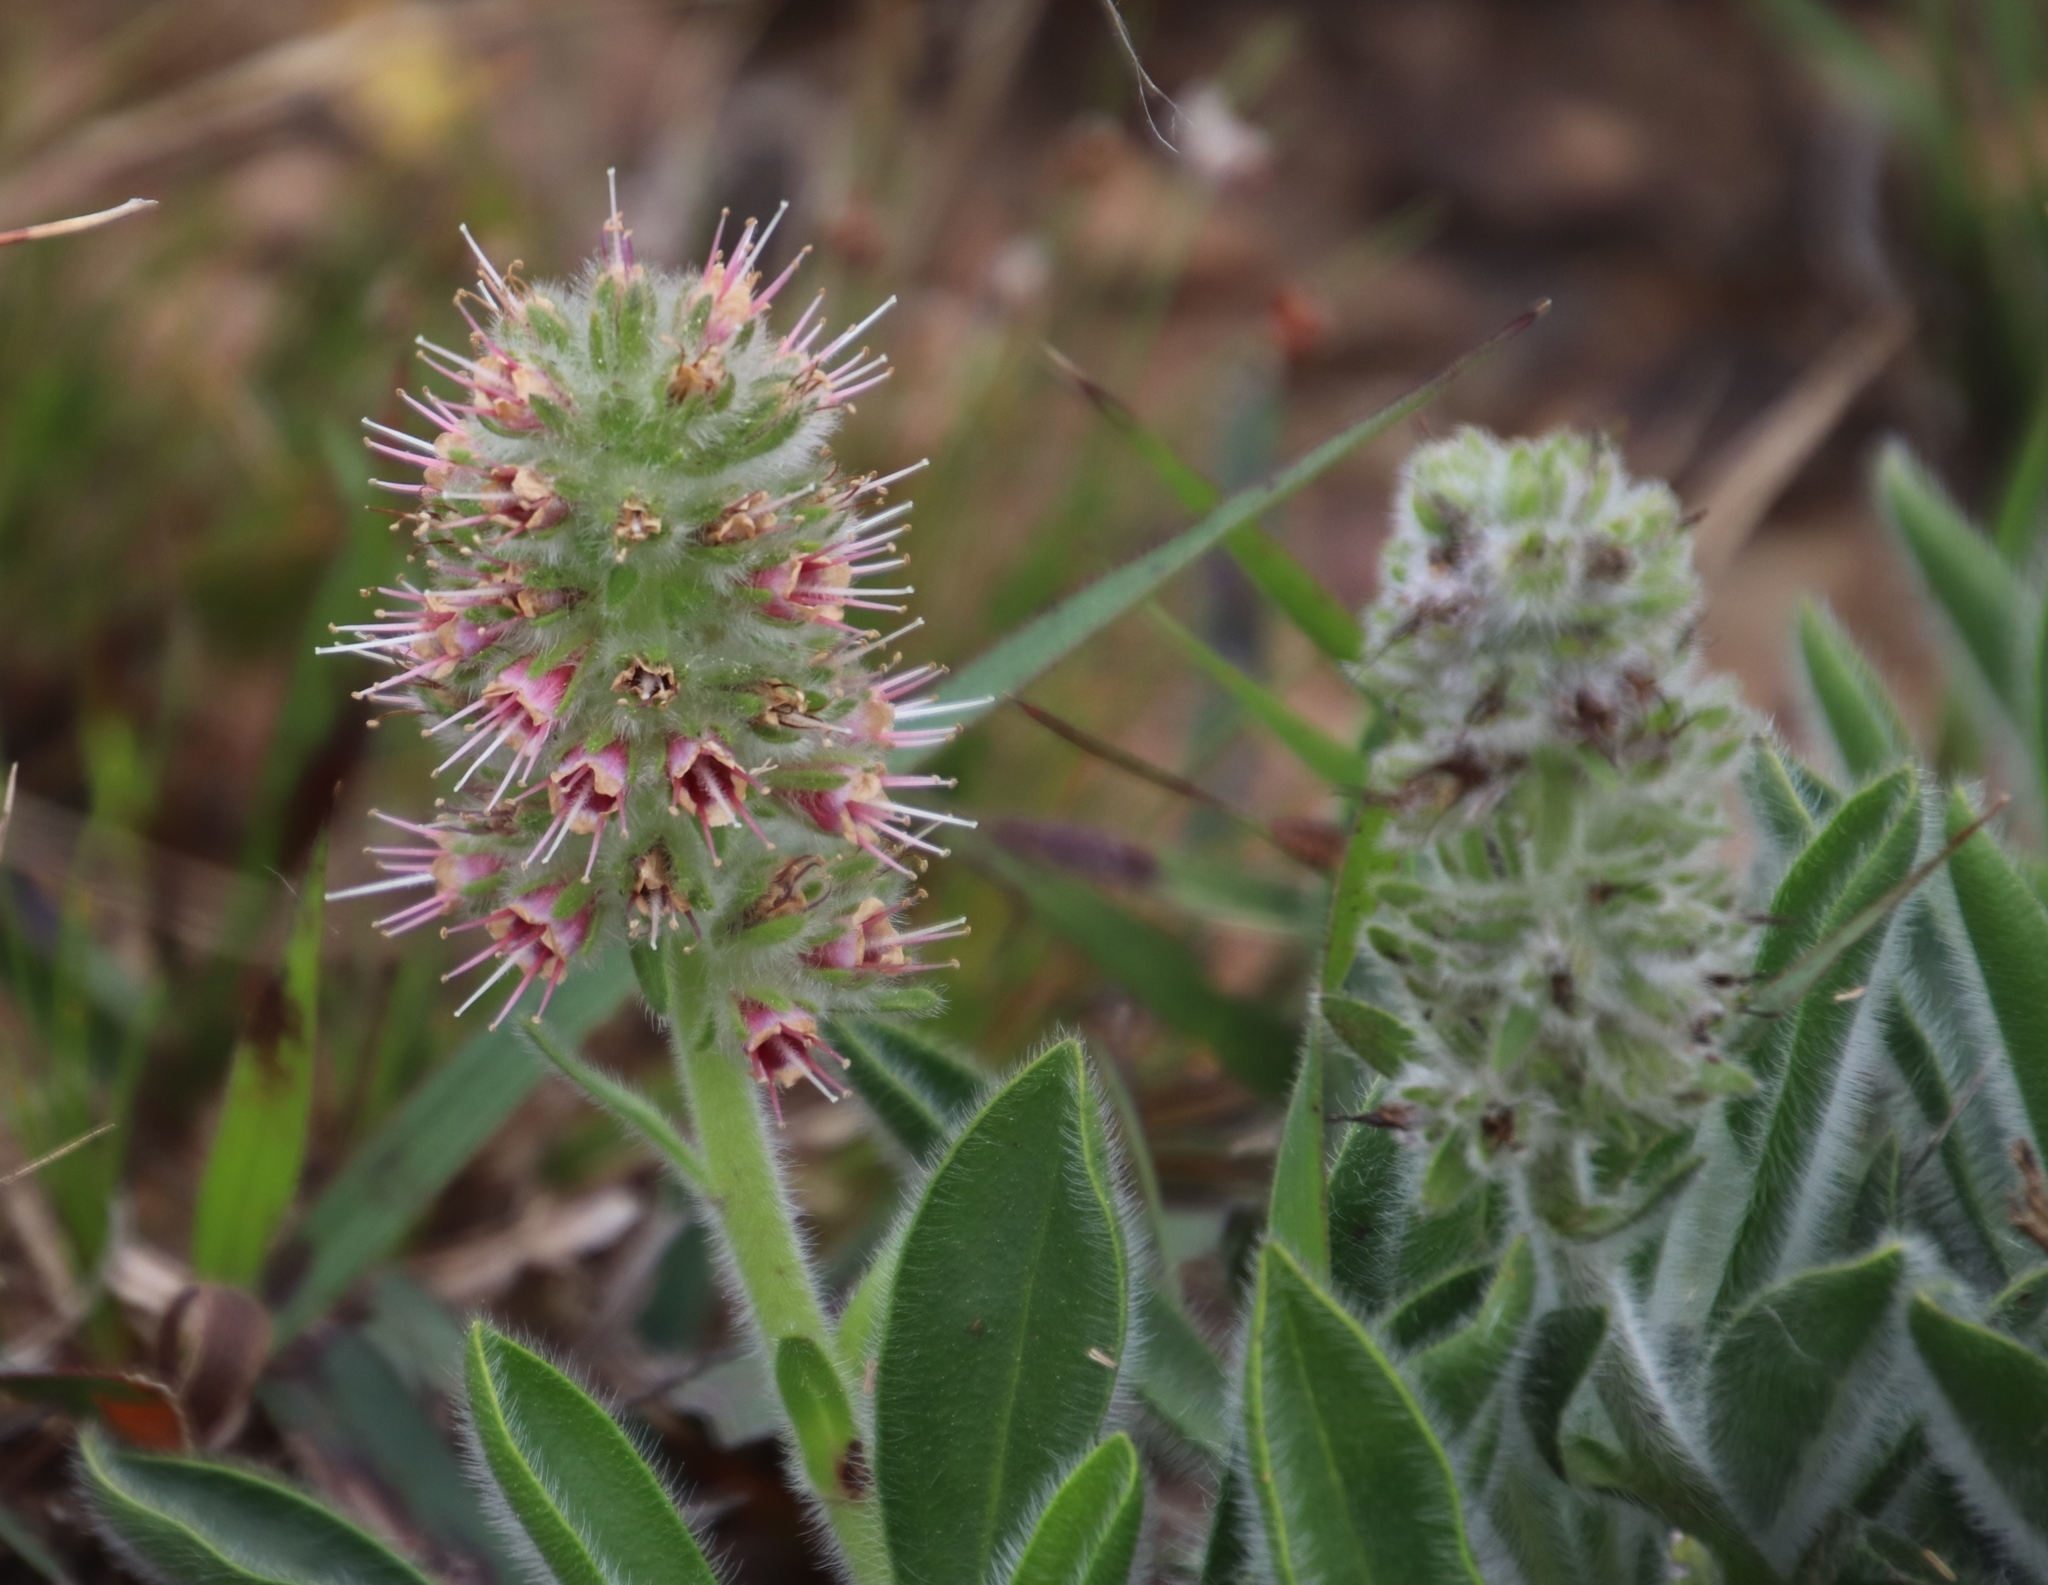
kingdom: Plantae
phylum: Tracheophyta
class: Magnoliopsida
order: Boraginales
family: Boraginaceae
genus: Lobostemon
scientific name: Lobostemon ecklonianus
